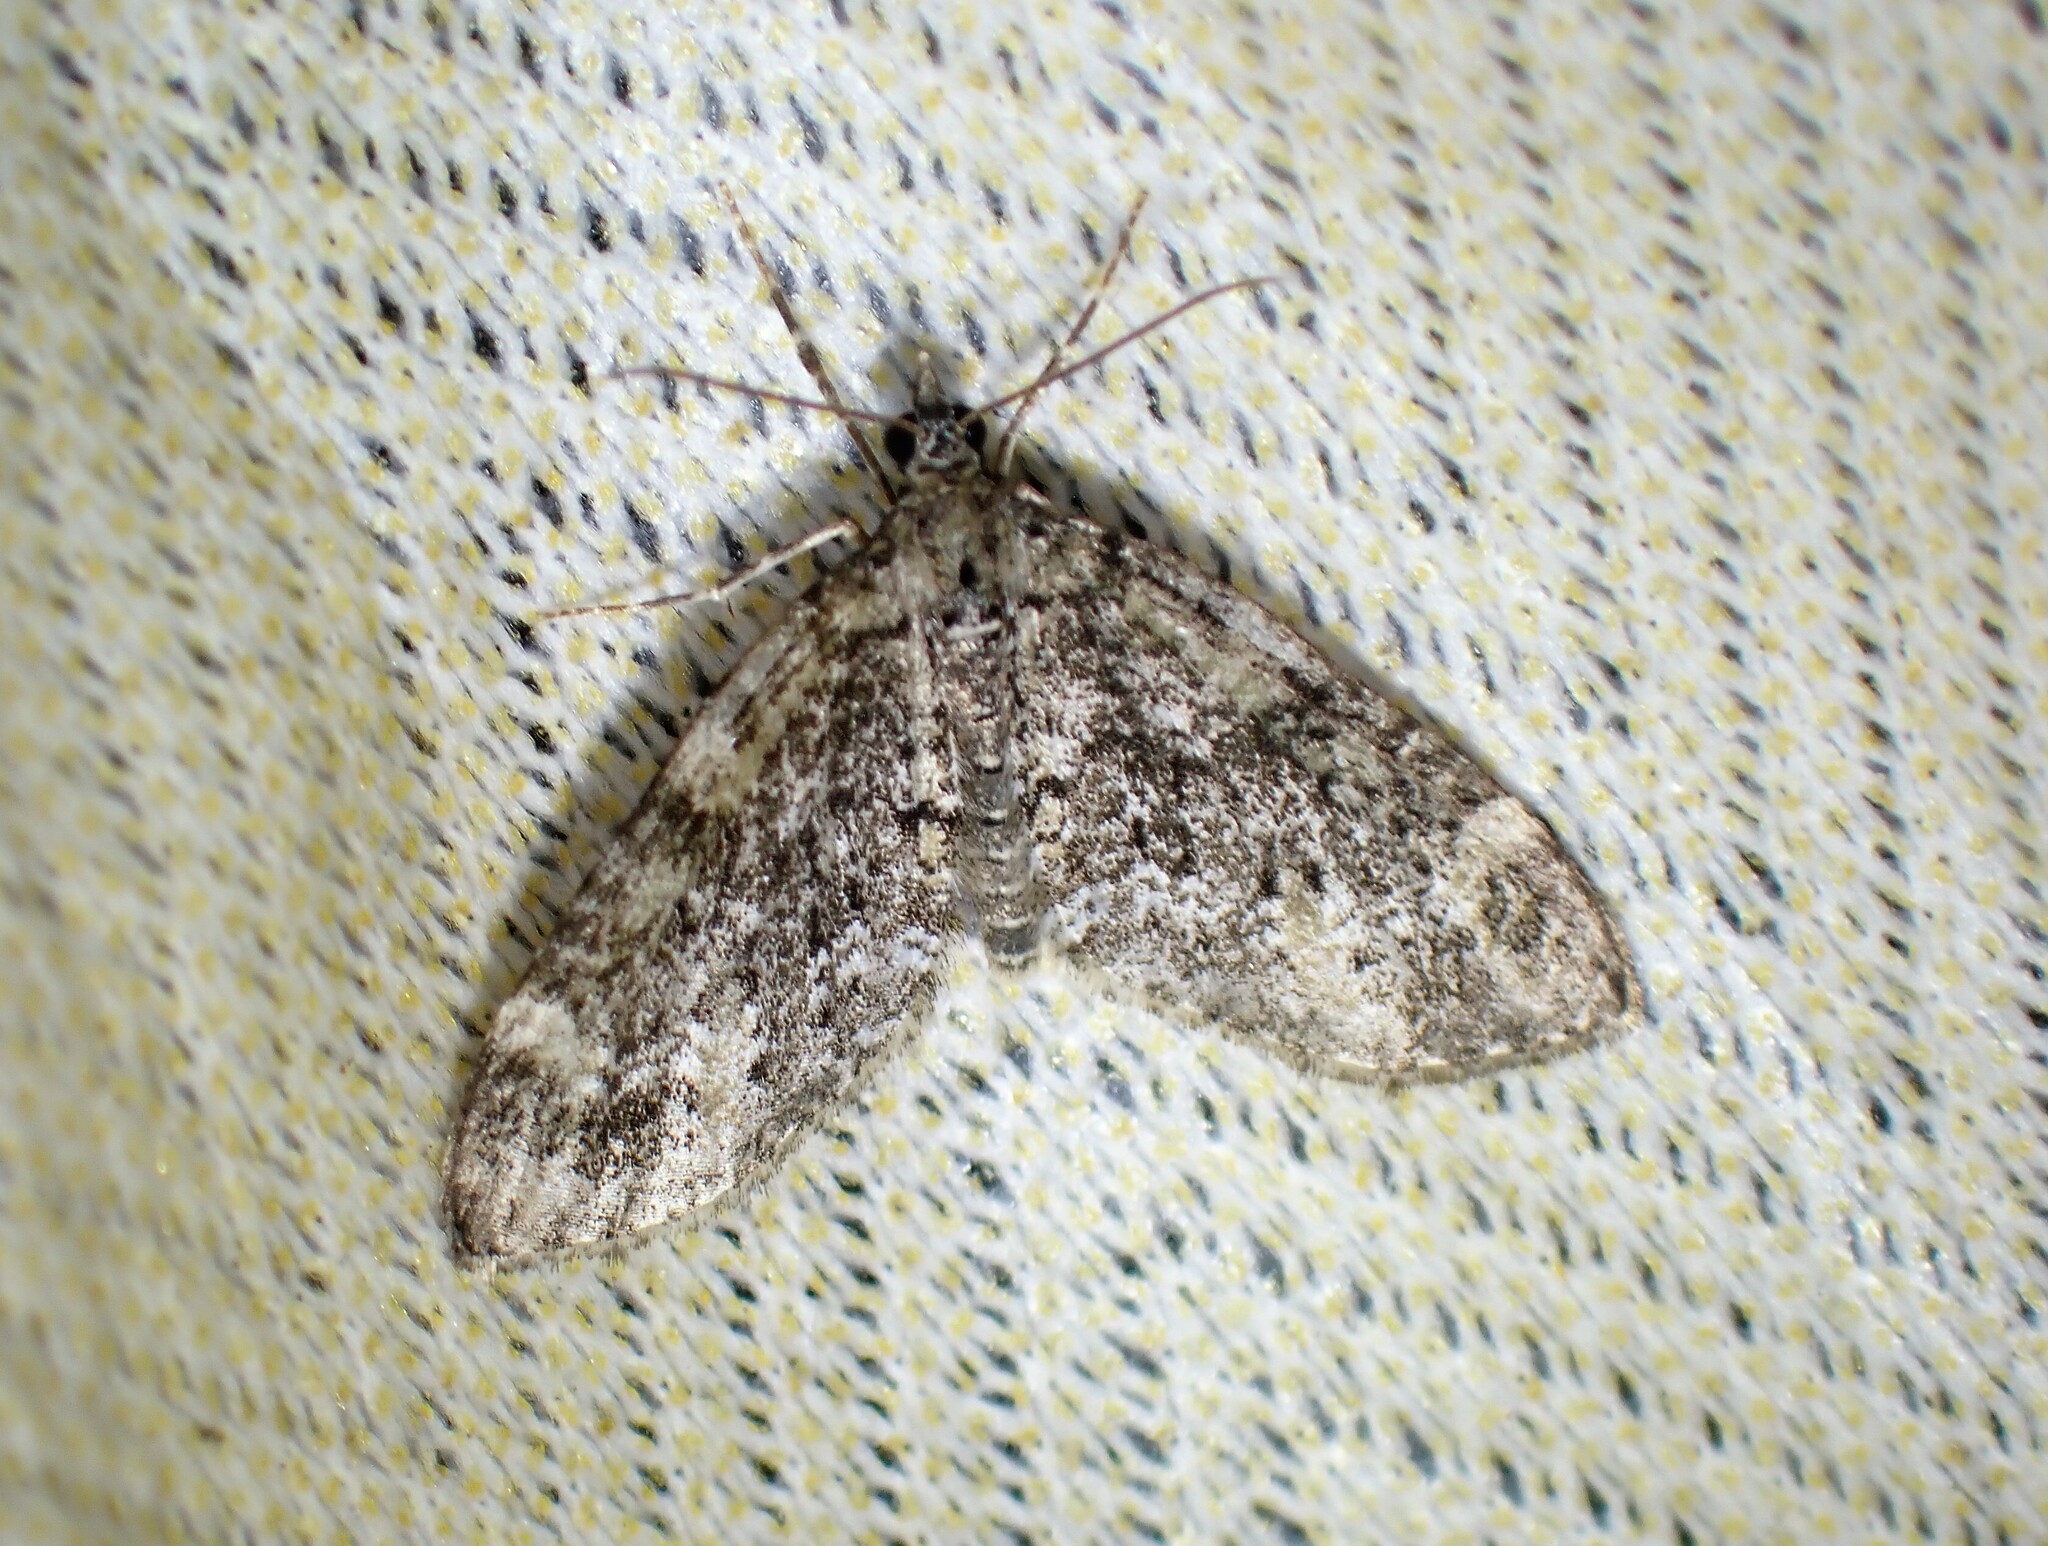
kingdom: Animalia
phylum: Arthropoda
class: Insecta
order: Lepidoptera
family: Geometridae
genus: Acasis
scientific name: Acasis viridata
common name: Olive-and-black carpet moth
